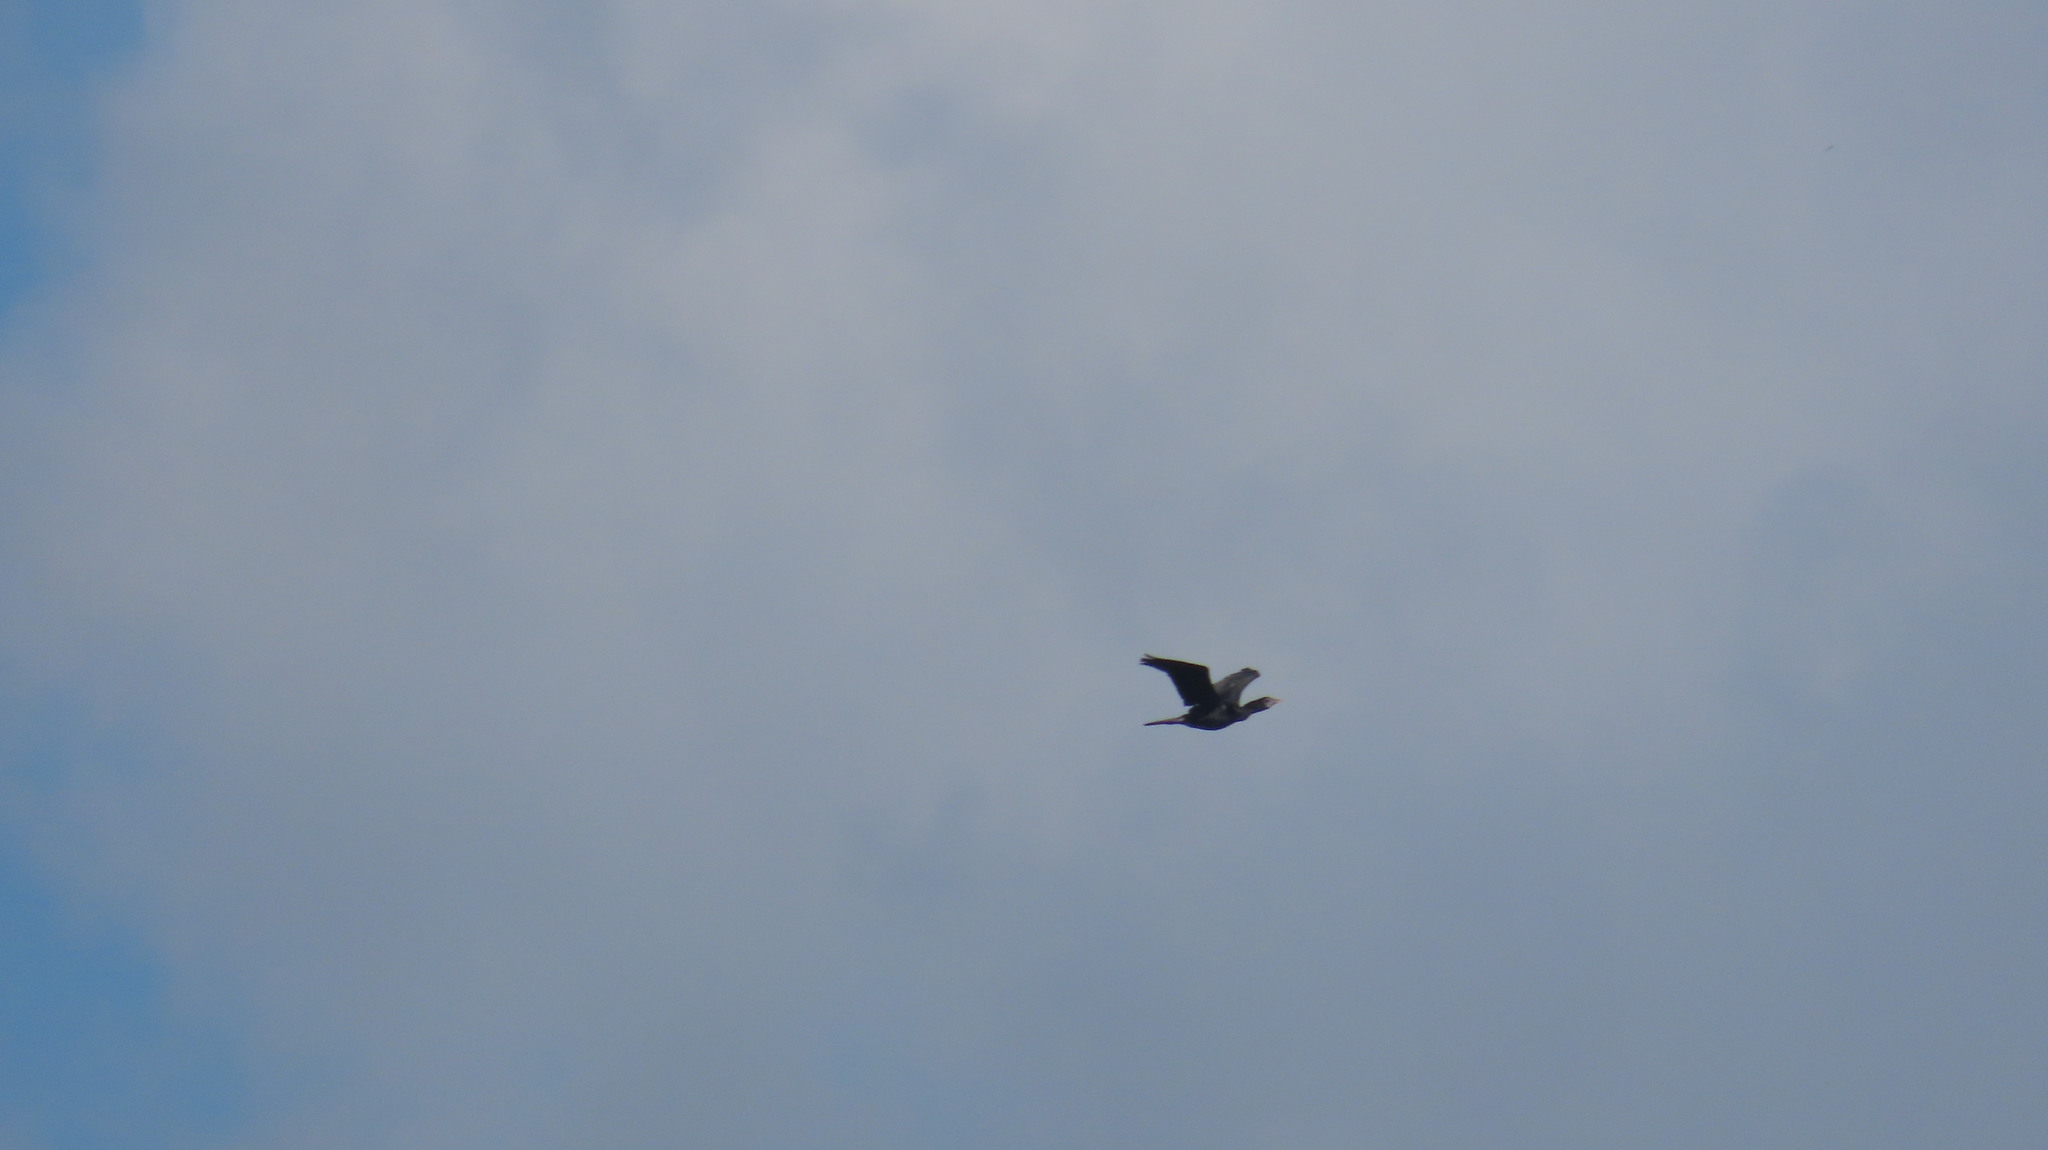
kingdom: Animalia
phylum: Chordata
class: Aves
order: Suliformes
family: Phalacrocoracidae
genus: Microcarbo
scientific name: Microcarbo niger
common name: Little cormorant
